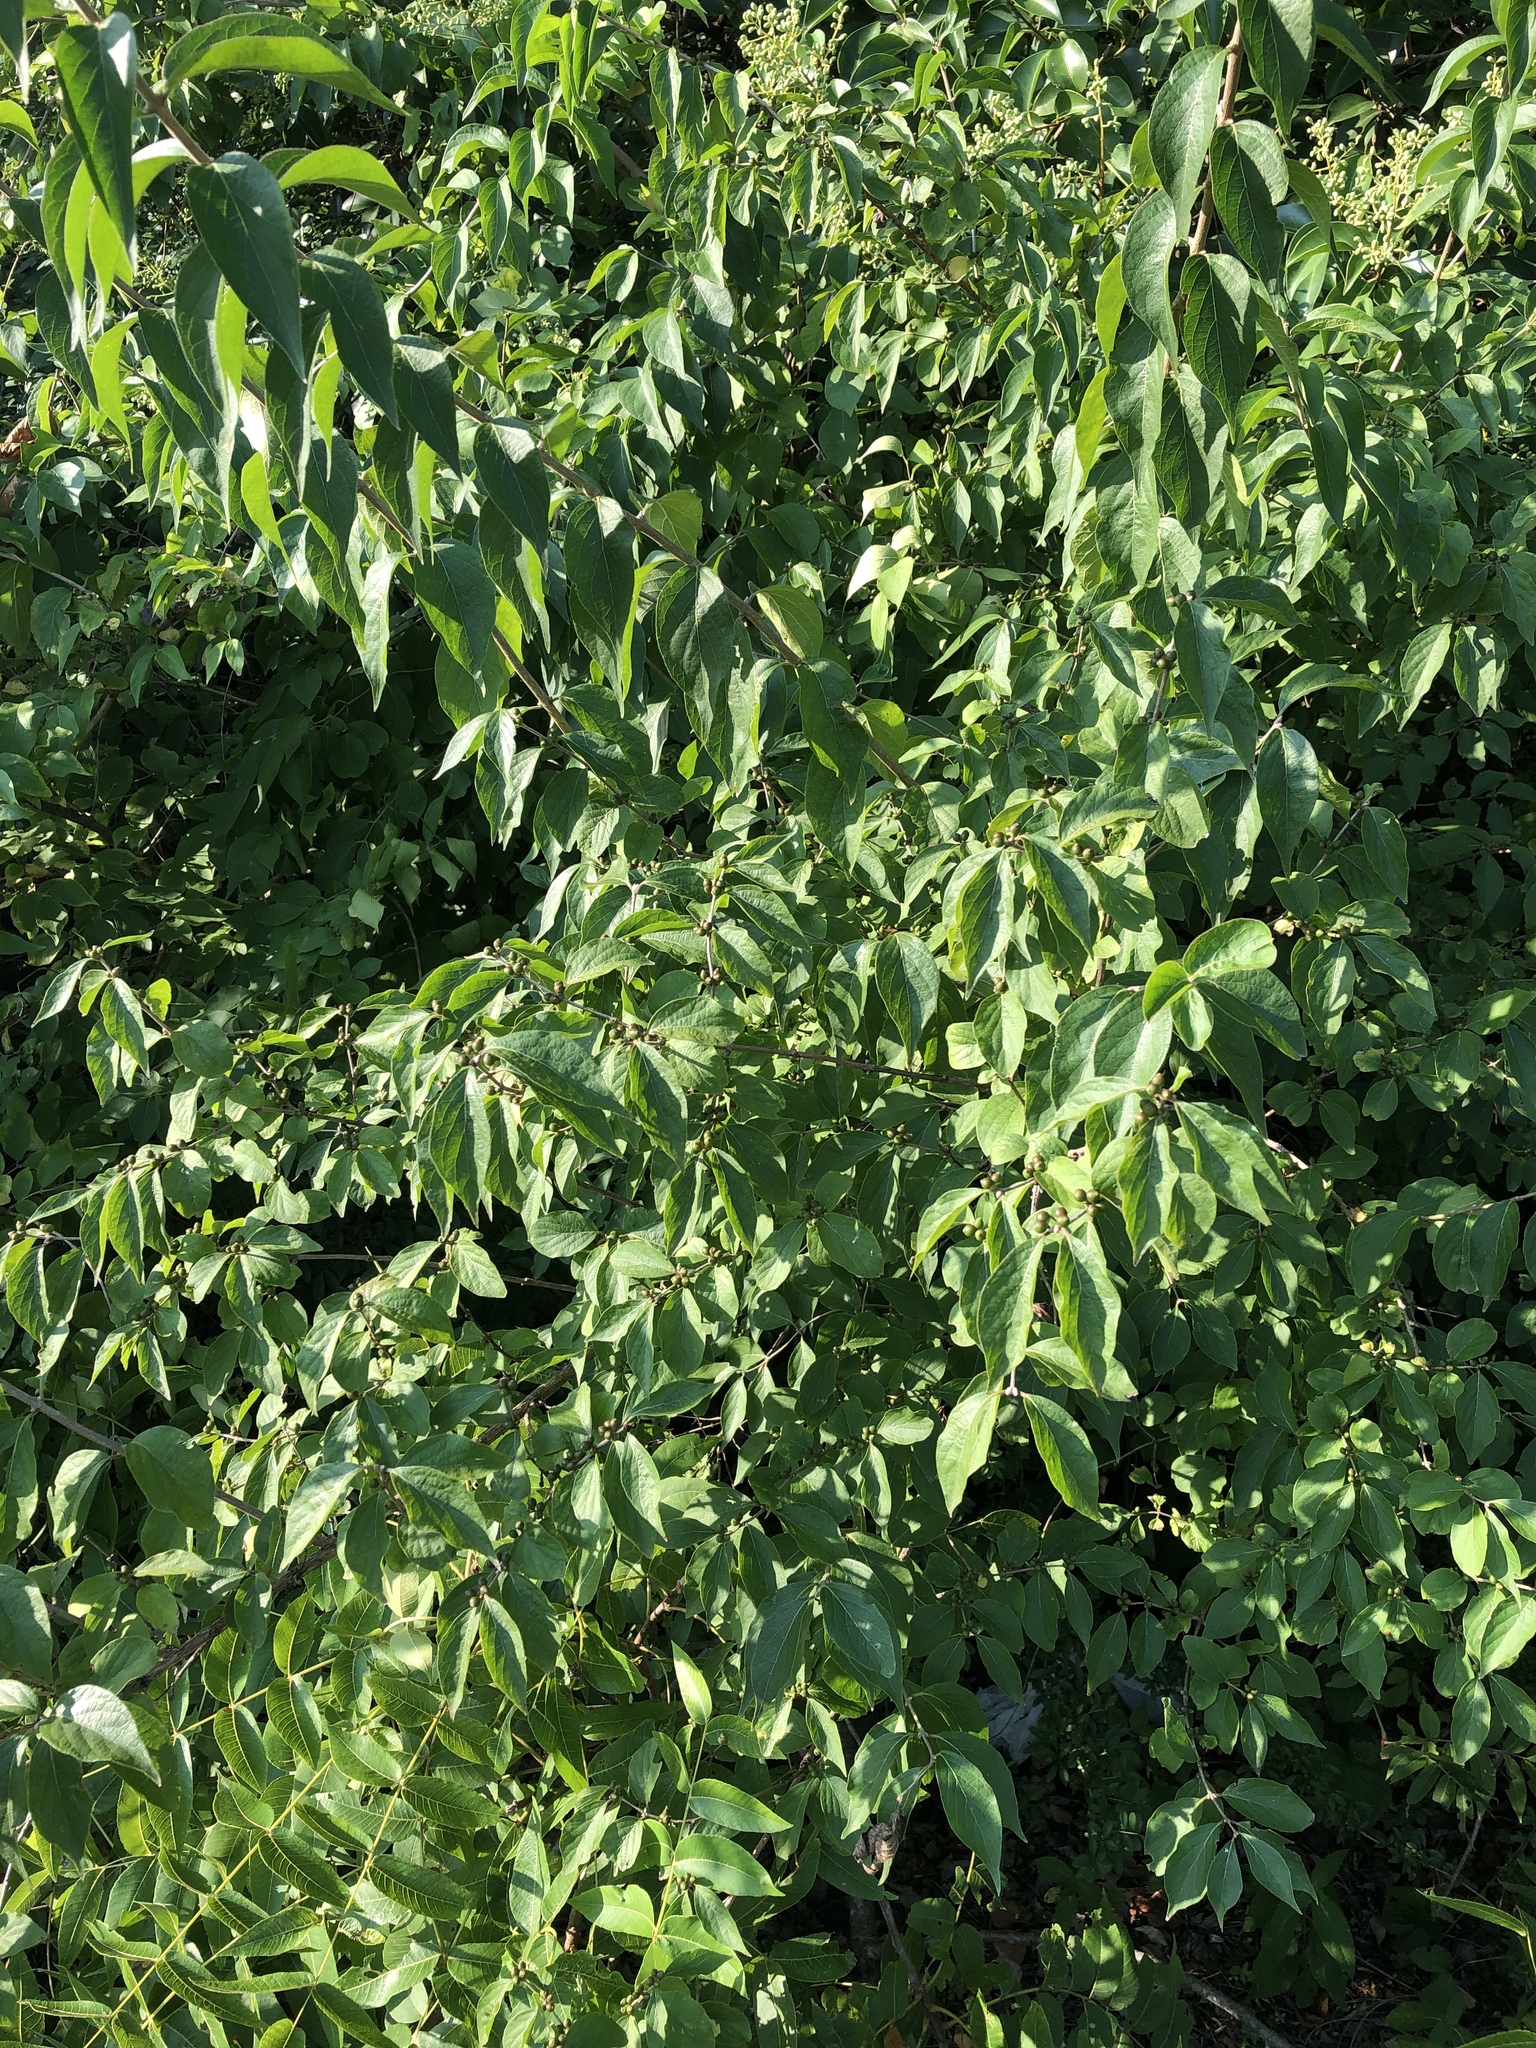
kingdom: Plantae
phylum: Tracheophyta
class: Magnoliopsida
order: Dipsacales
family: Caprifoliaceae
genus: Lonicera
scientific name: Lonicera maackii
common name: Amur honeysuckle
